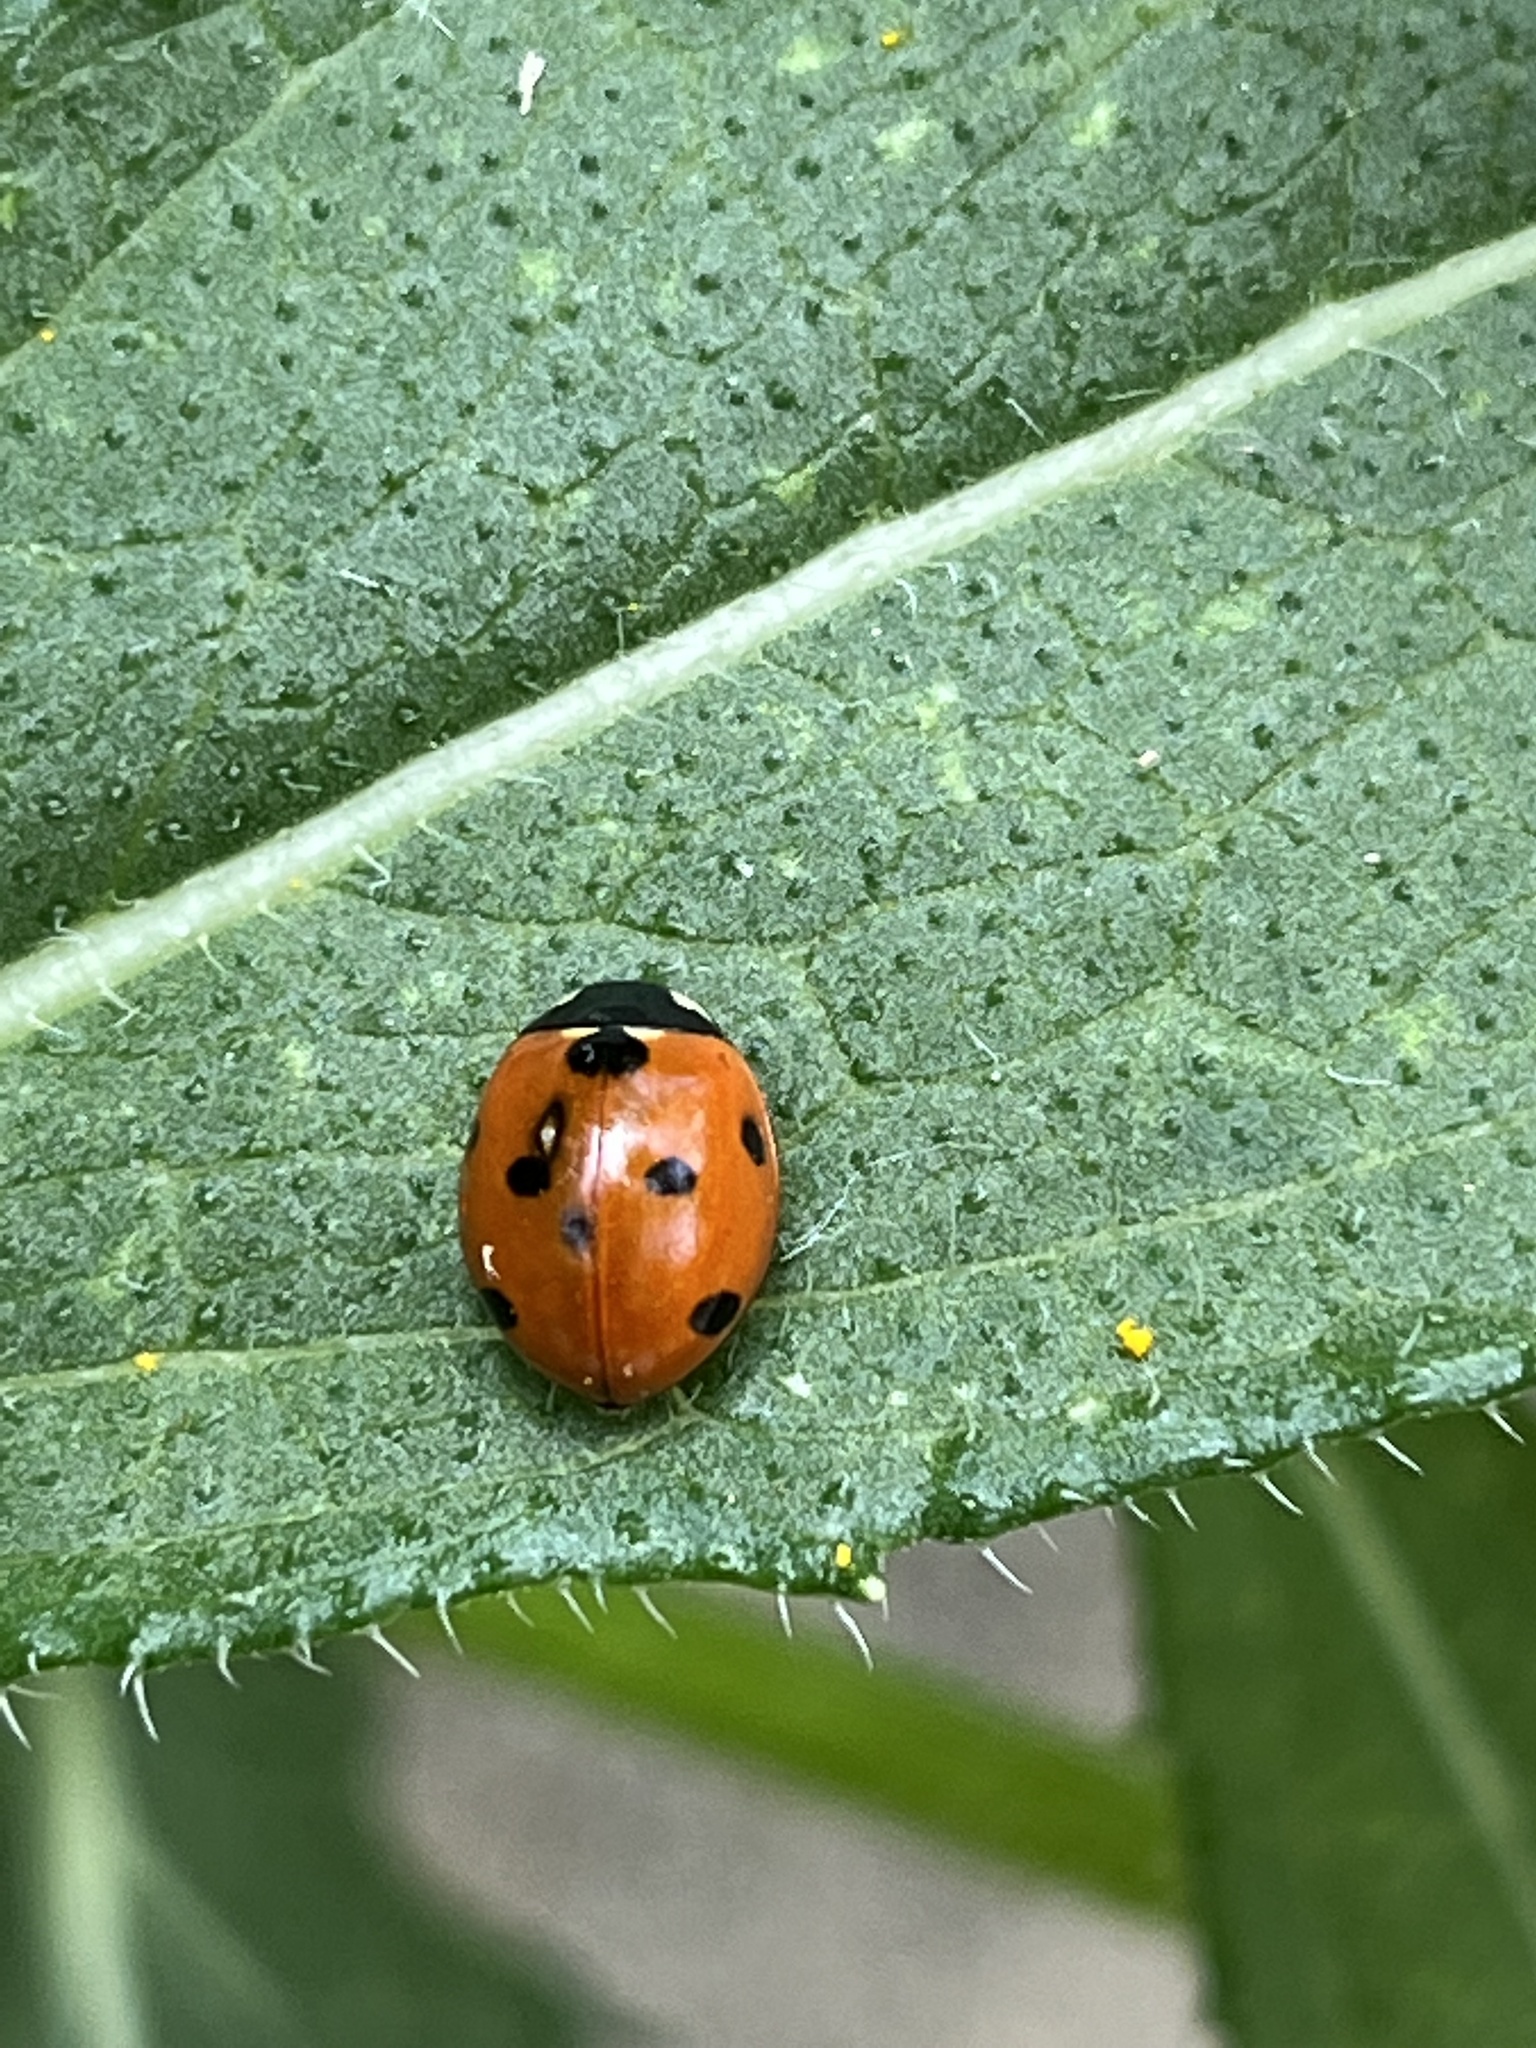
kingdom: Animalia
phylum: Arthropoda
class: Insecta
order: Coleoptera
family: Coccinellidae
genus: Coccinella
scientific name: Coccinella septempunctata
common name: Sevenspotted lady beetle
